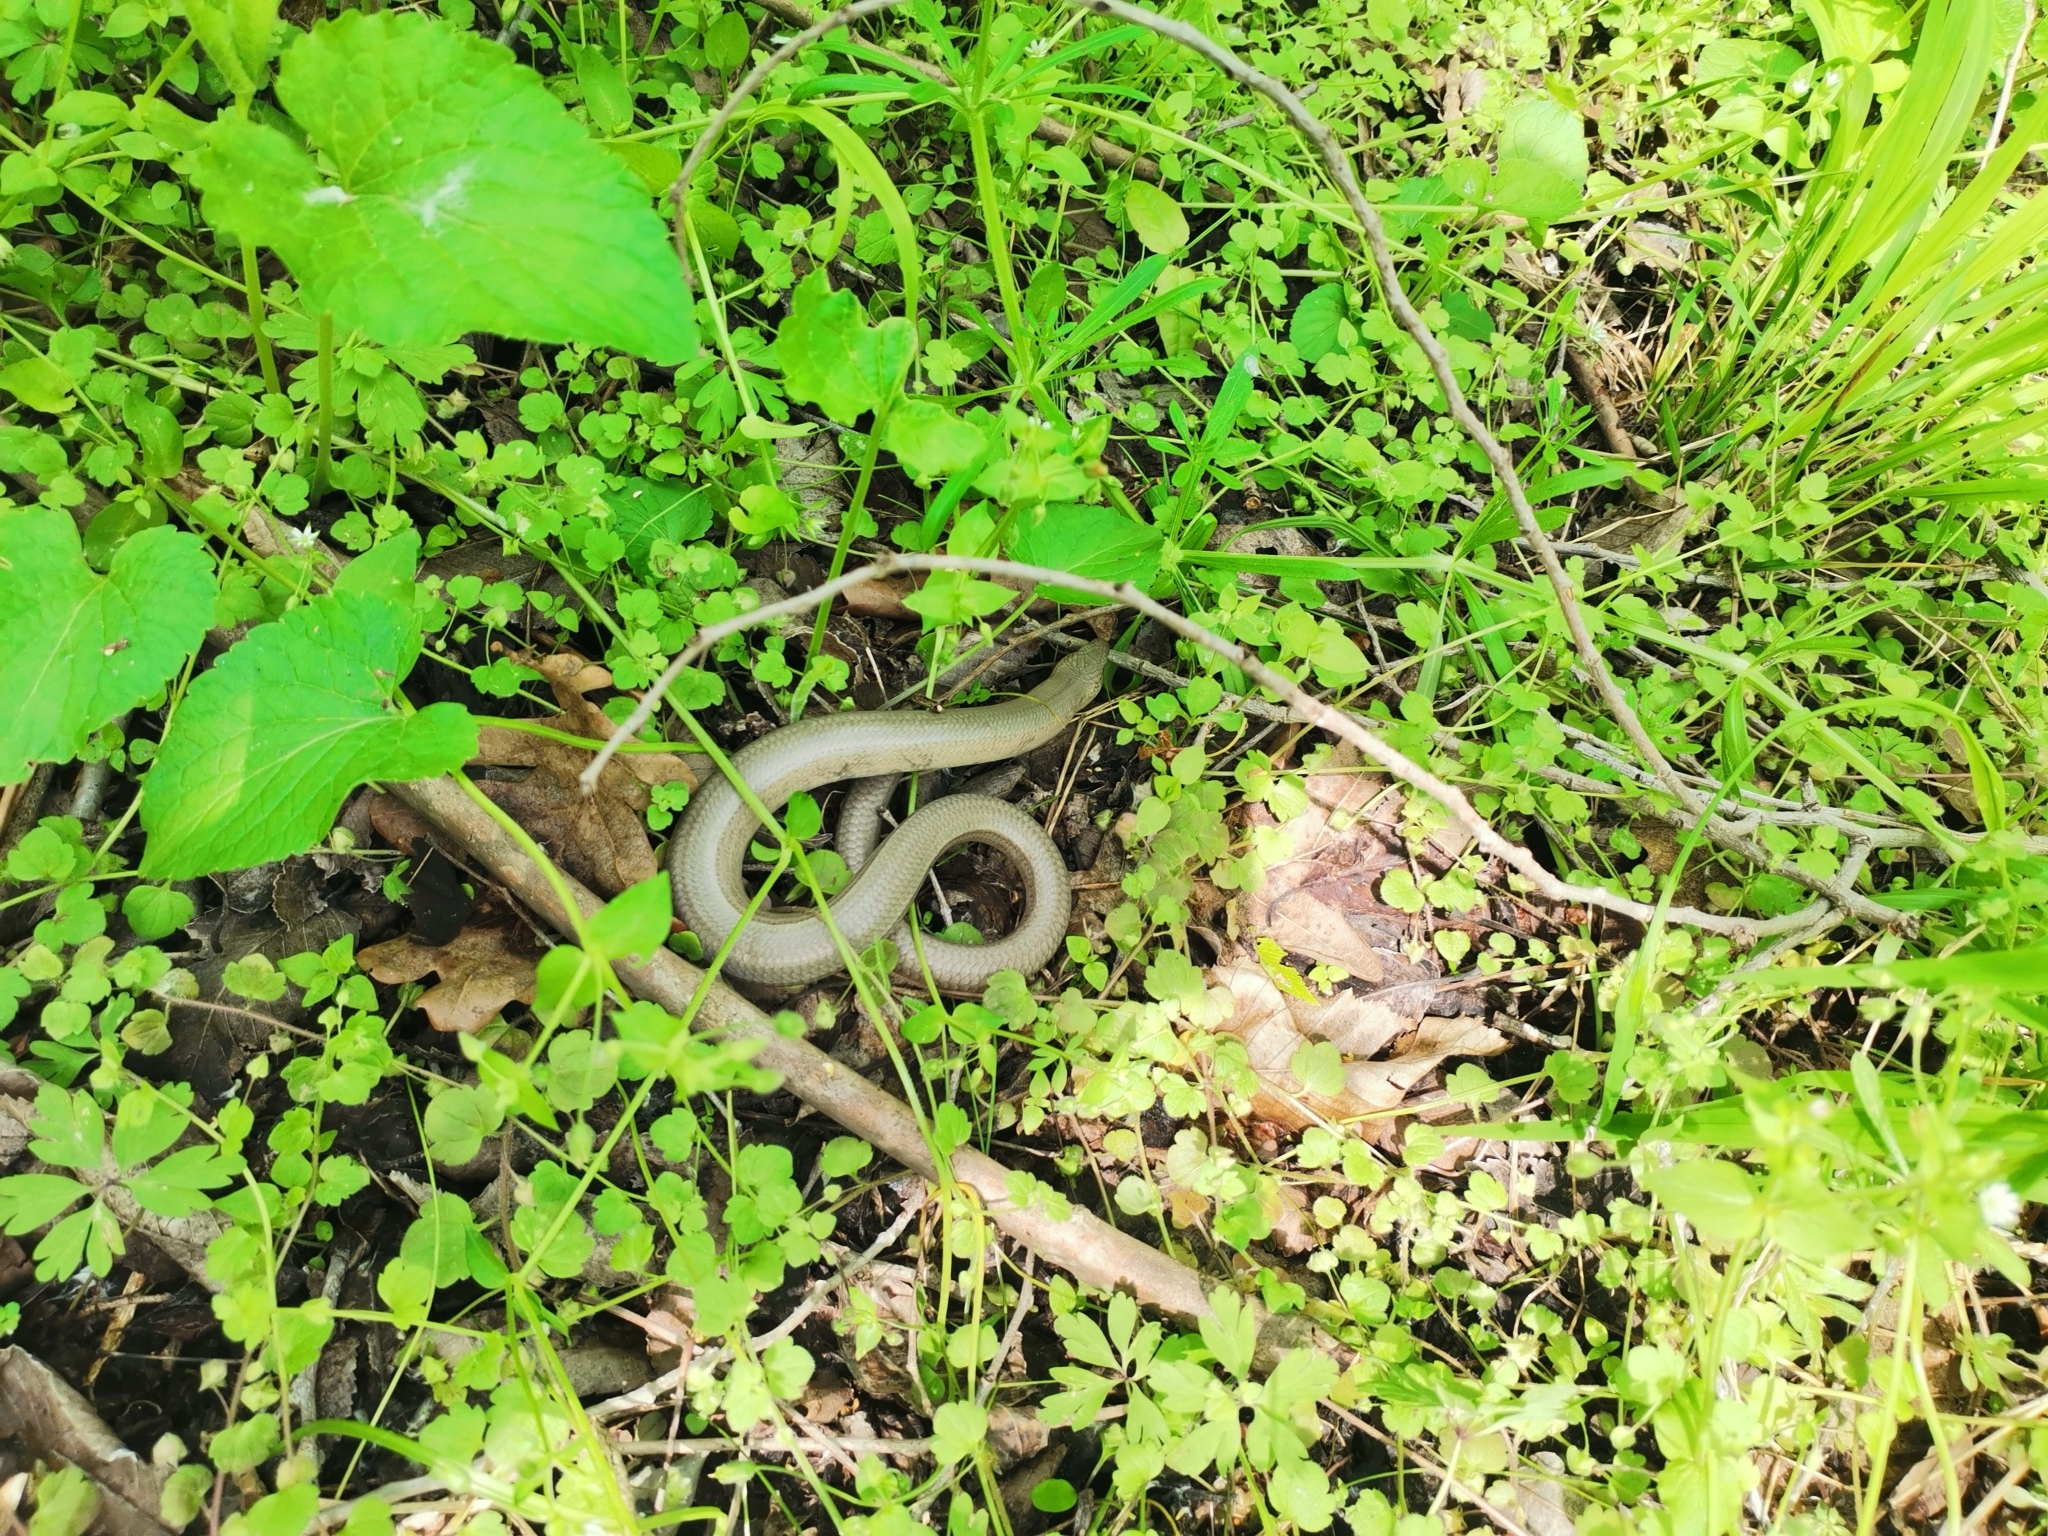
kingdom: Animalia
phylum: Chordata
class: Squamata
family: Anguidae
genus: Anguis
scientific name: Anguis fragilis
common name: Slow worm
